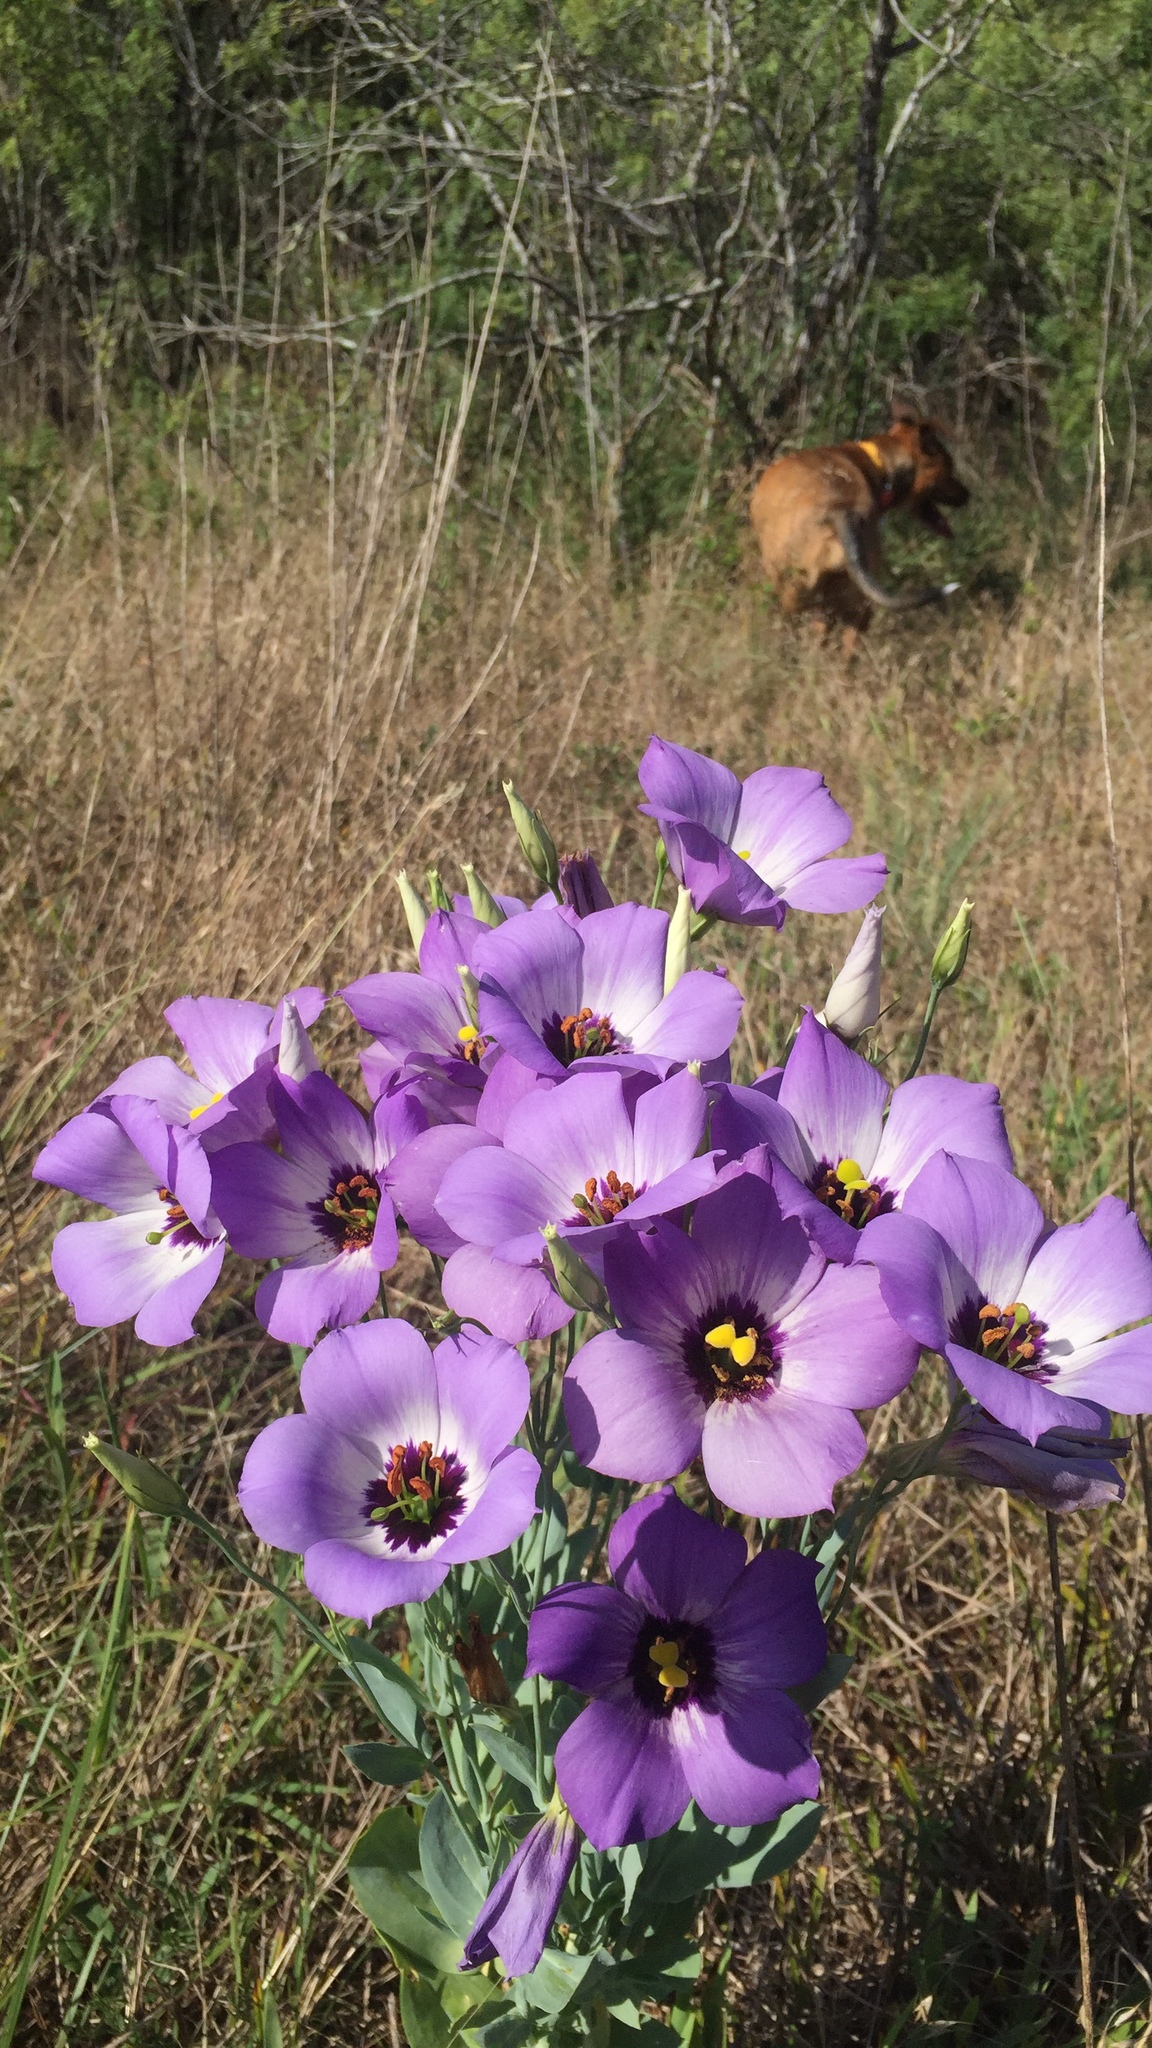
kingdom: Plantae
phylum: Tracheophyta
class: Magnoliopsida
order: Gentianales
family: Gentianaceae
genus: Eustoma
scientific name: Eustoma russellianum
